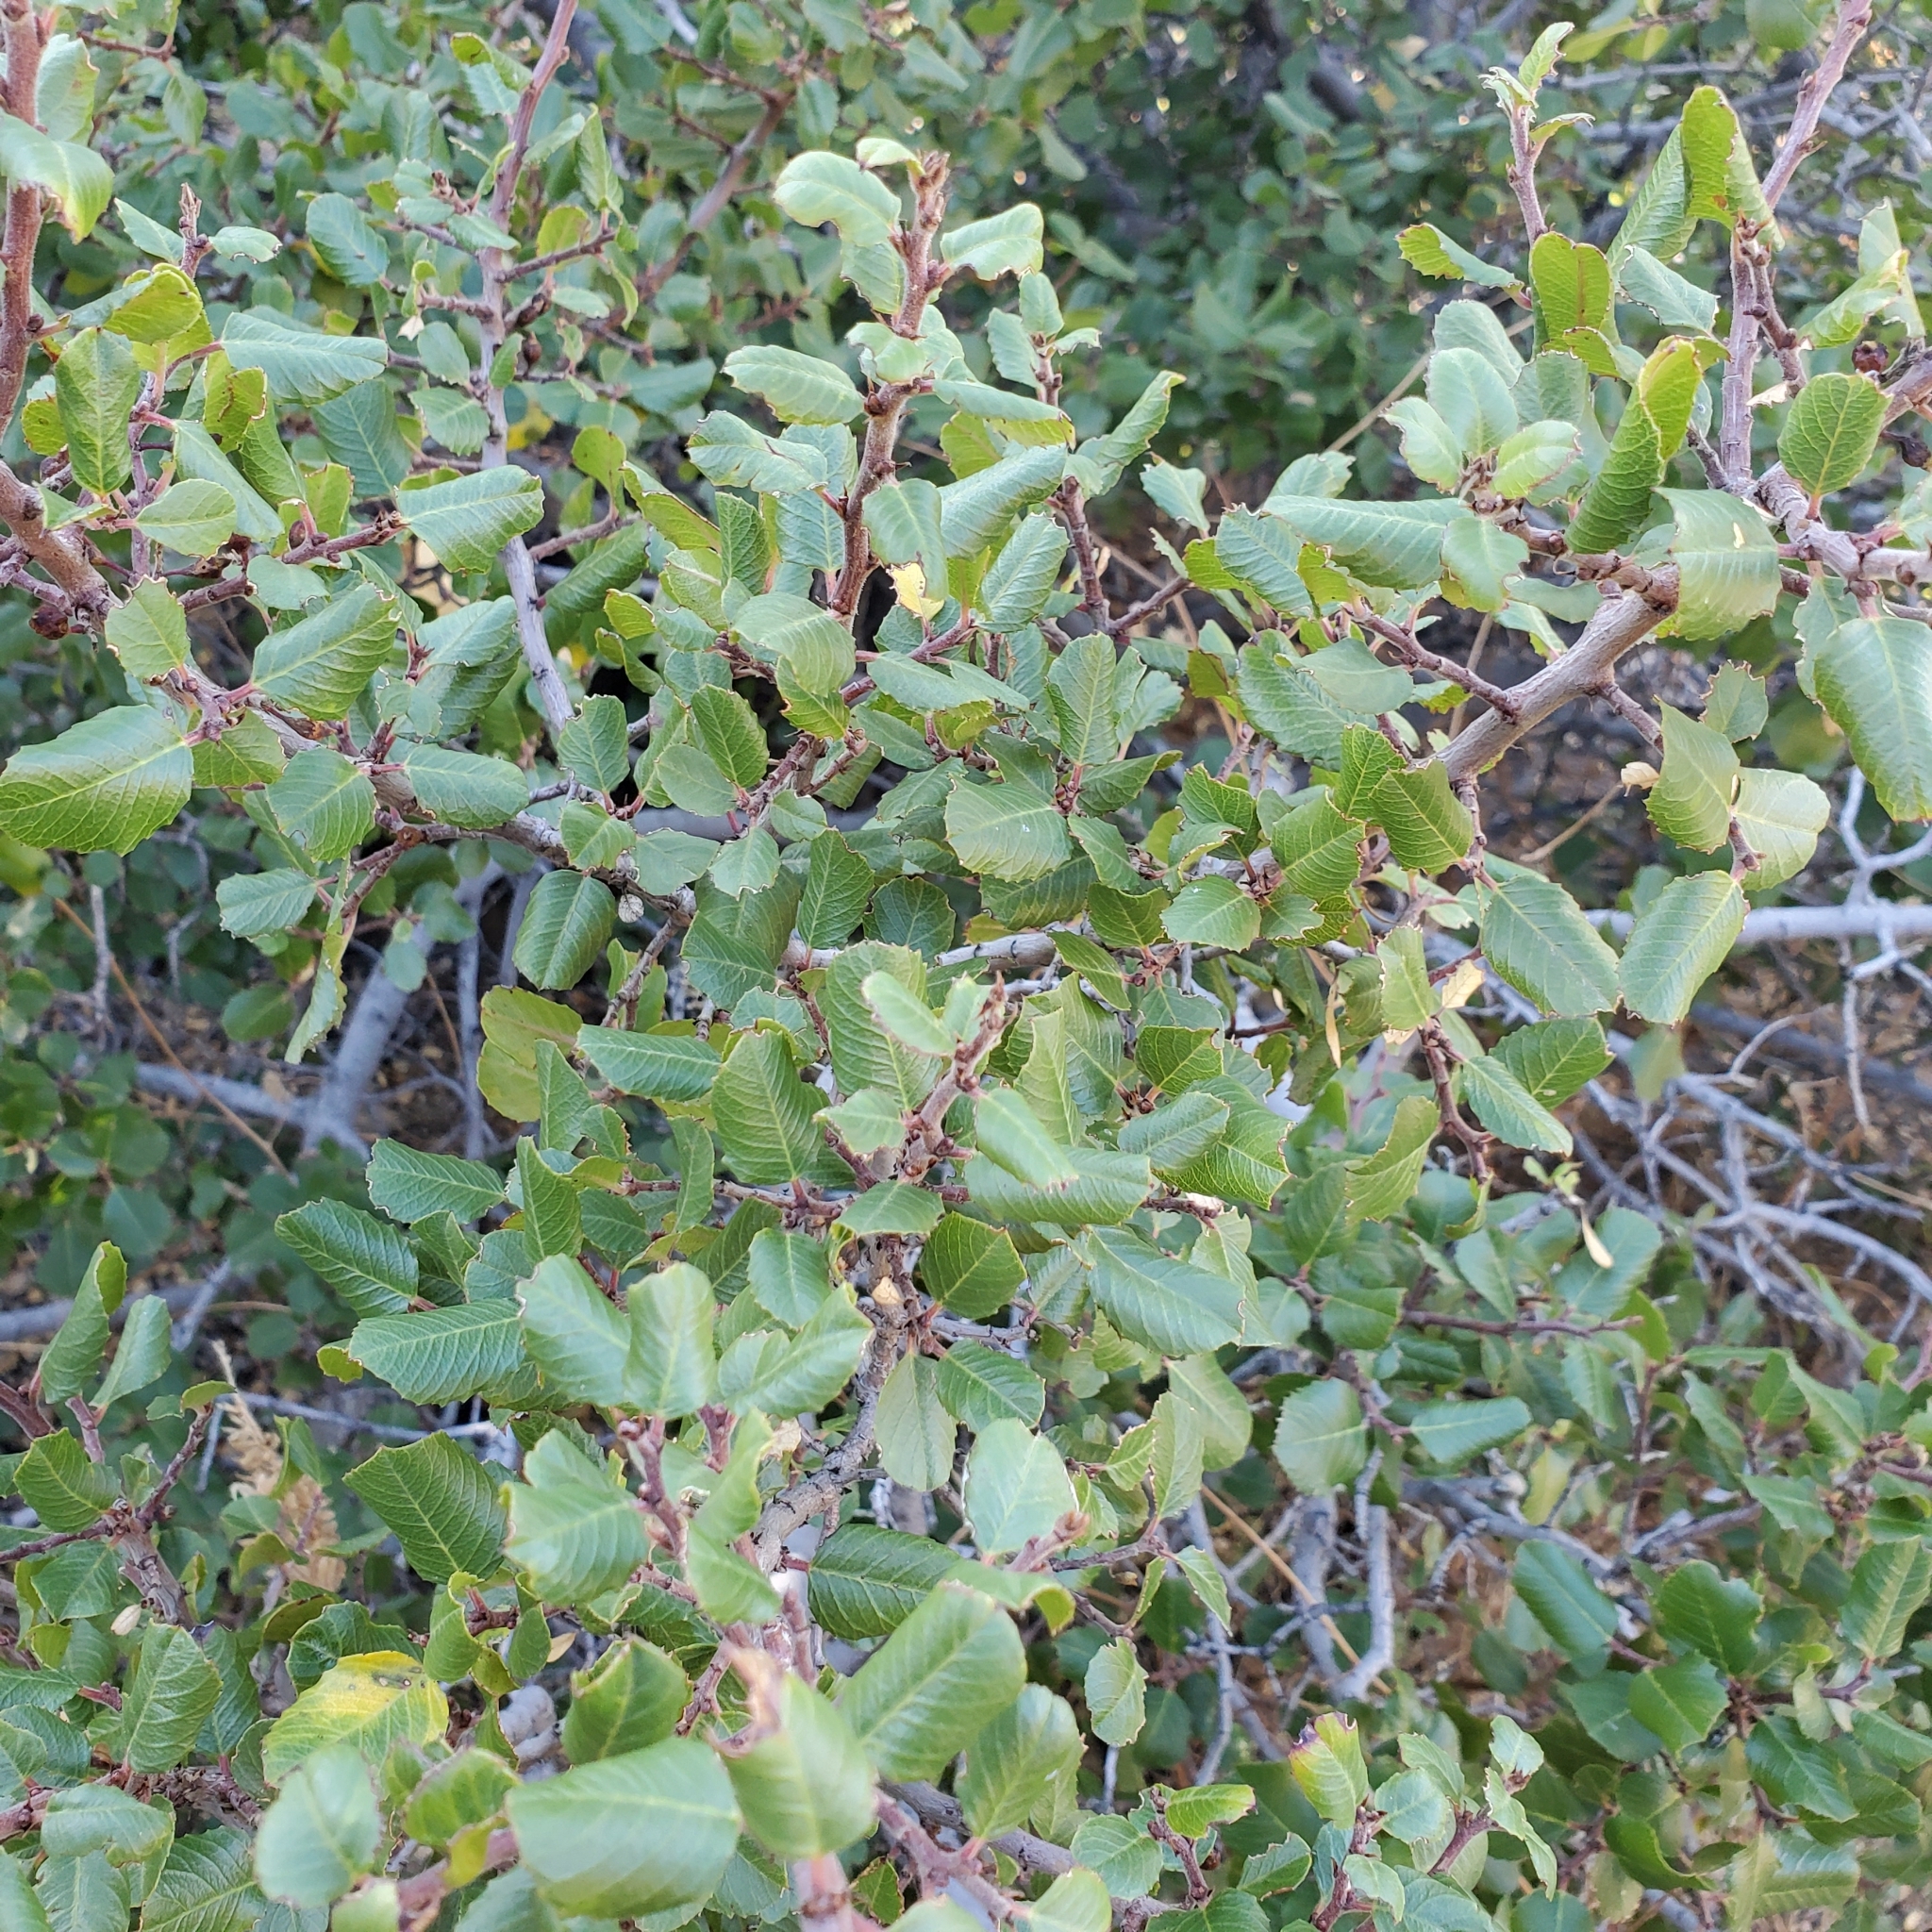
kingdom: Plantae
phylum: Tracheophyta
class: Magnoliopsida
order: Rosales
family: Rhamnaceae
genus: Endotropis
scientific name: Endotropis crocea
